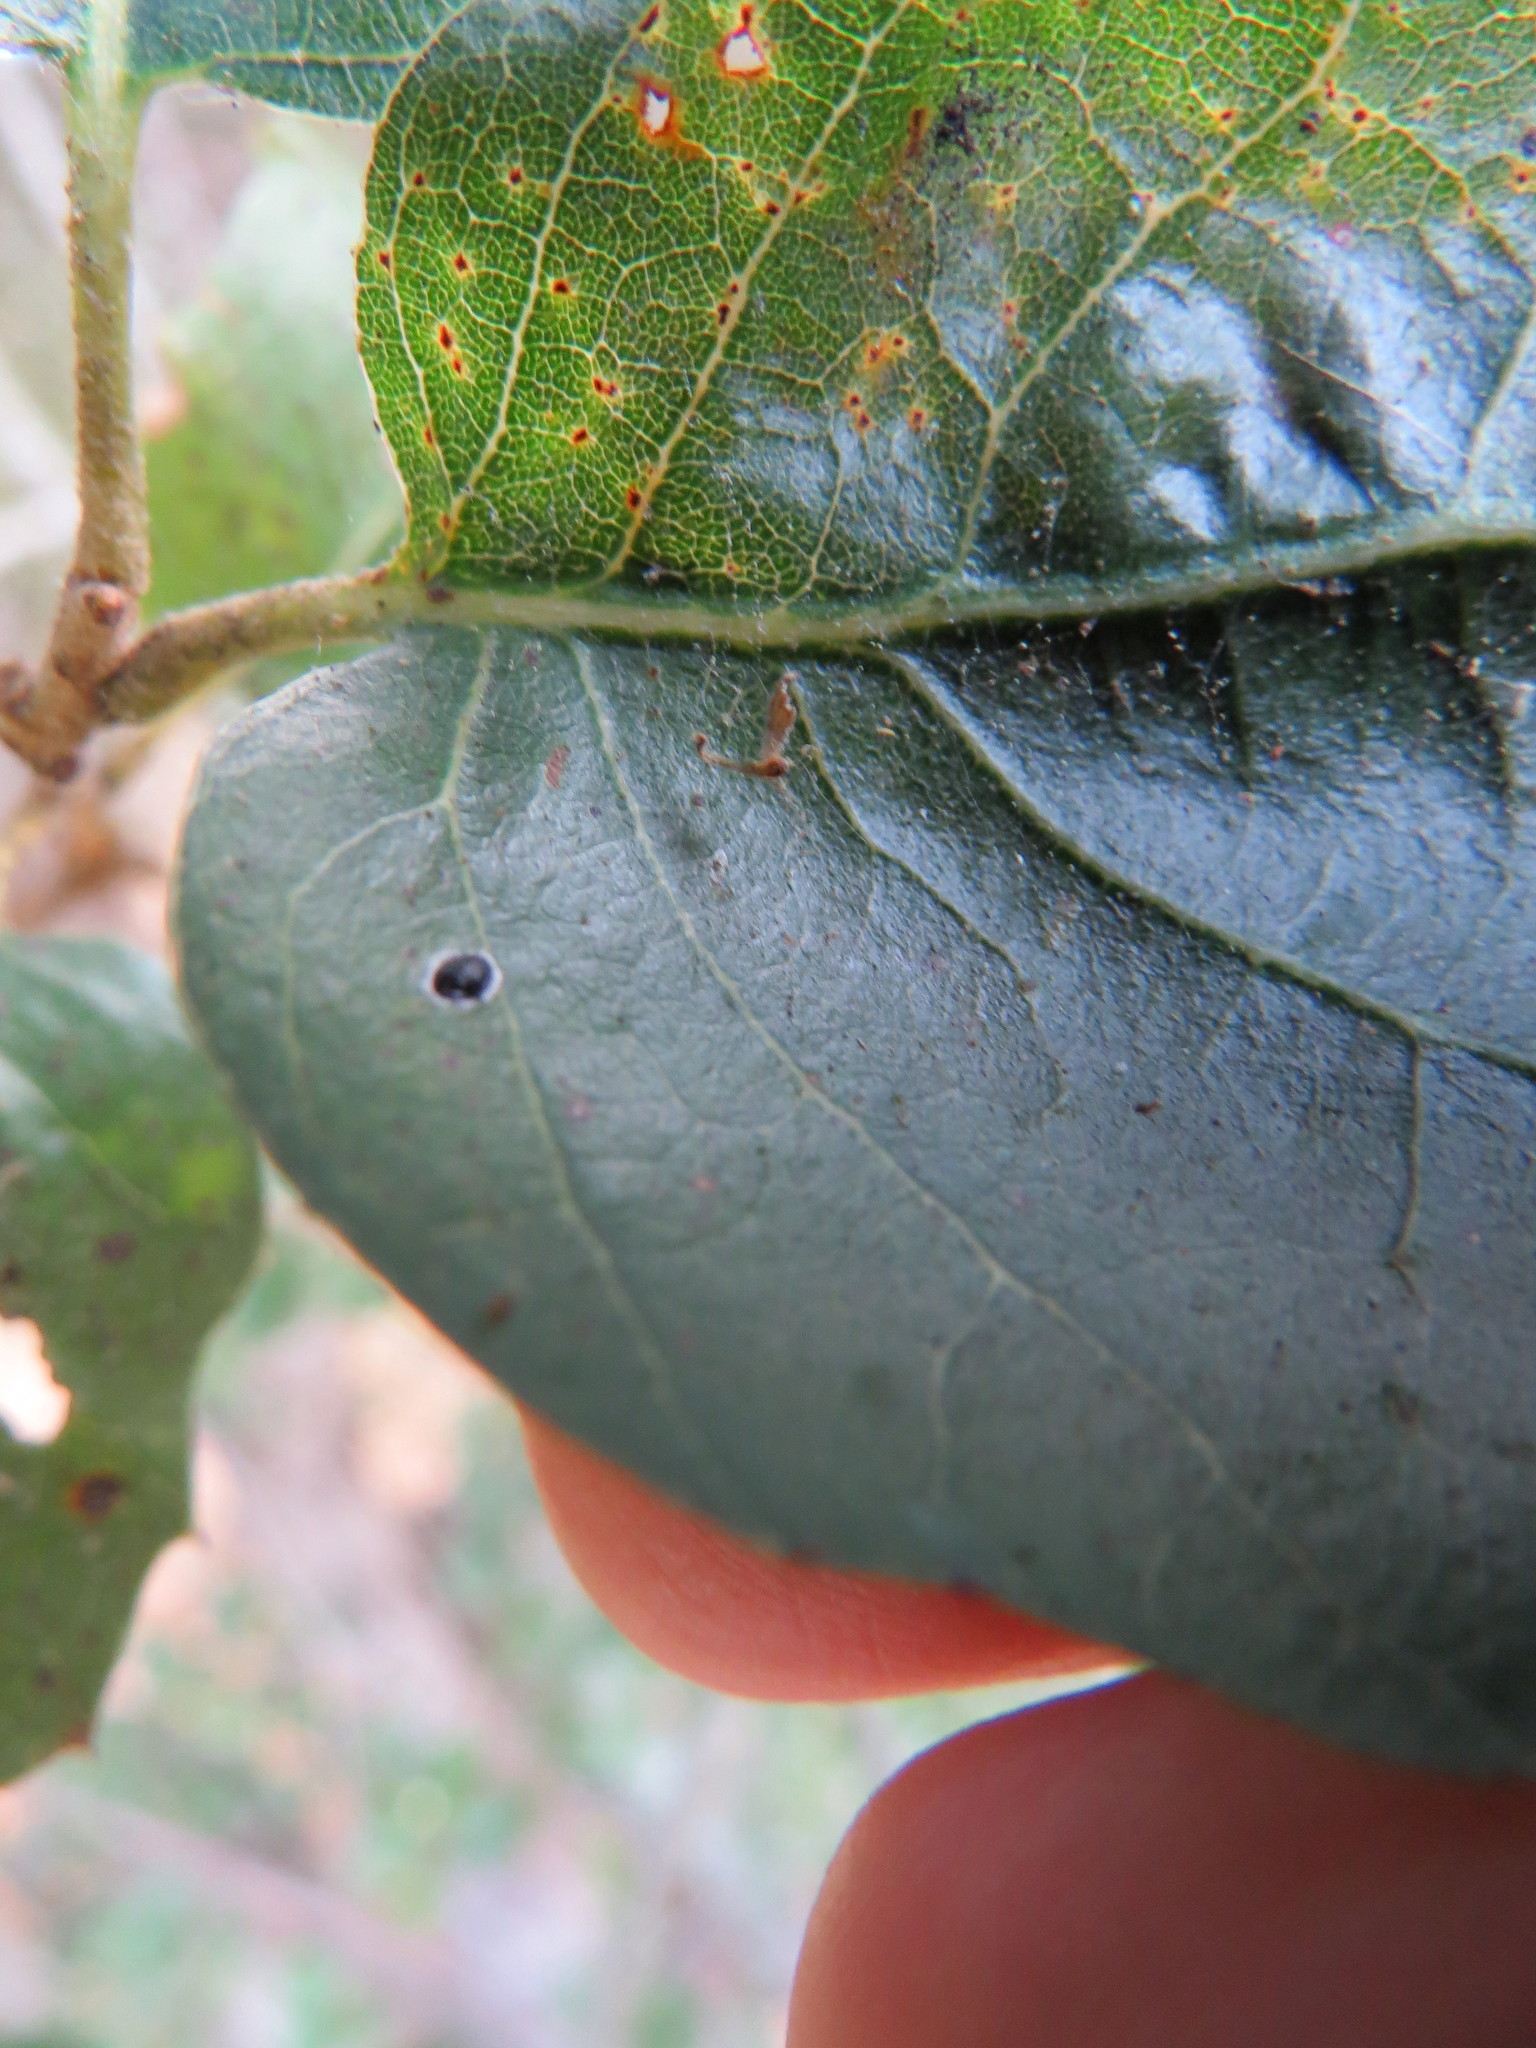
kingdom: Animalia
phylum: Arthropoda
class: Insecta
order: Hemiptera
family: Aleyrodidae
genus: Tetraleurodes
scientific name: Tetraleurodes perileuca
